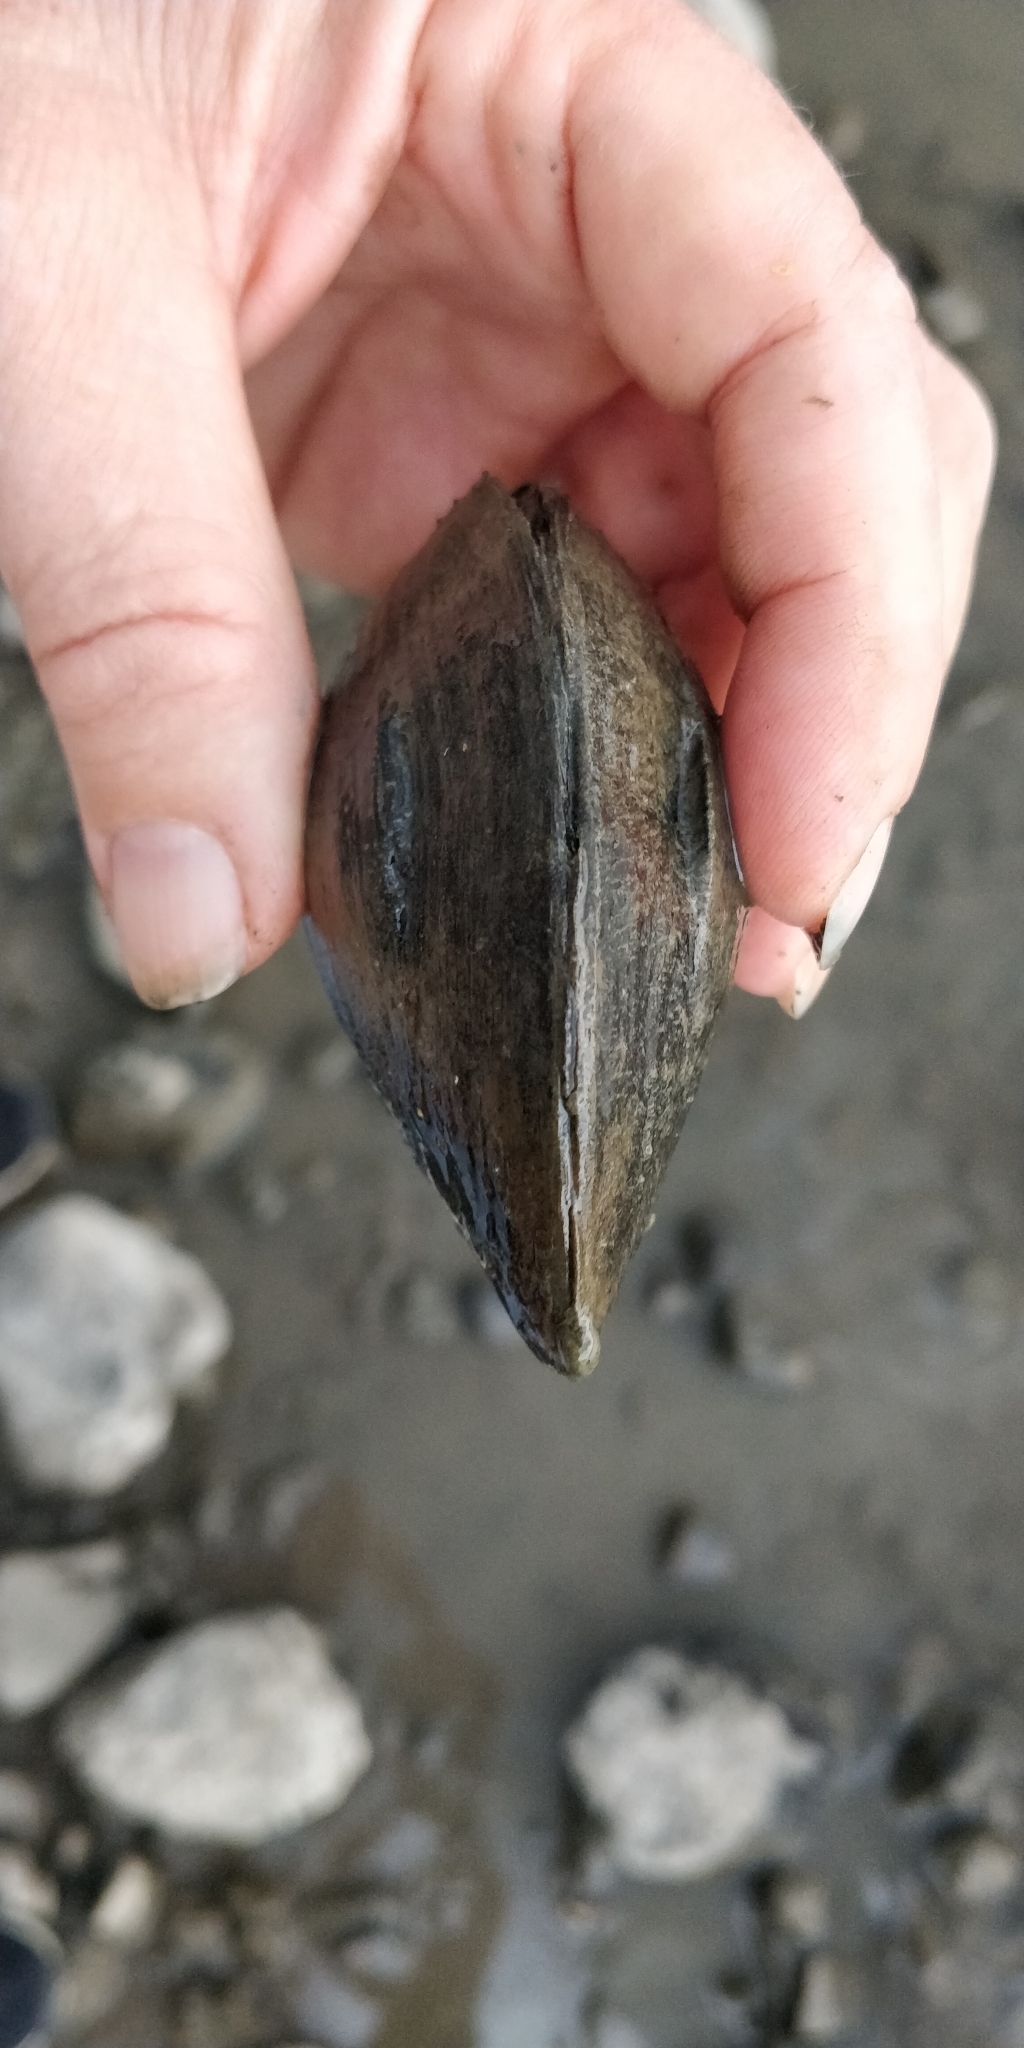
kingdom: Animalia
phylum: Mollusca
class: Bivalvia
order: Unionida
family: Unionidae
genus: Truncilla
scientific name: Truncilla truncata
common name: Deertoe
